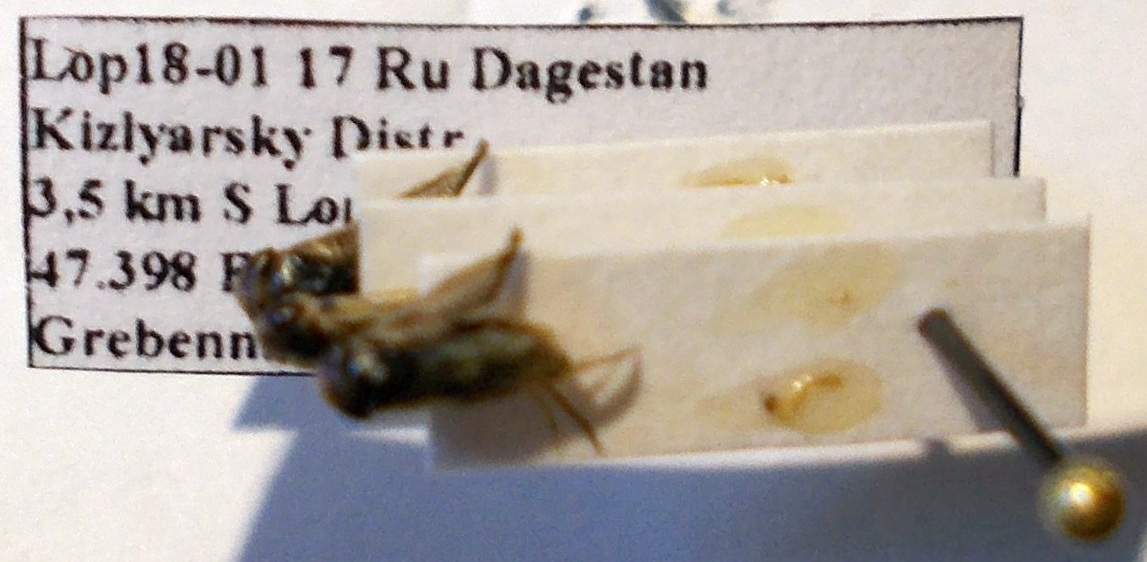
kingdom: Animalia
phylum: Arthropoda
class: Insecta
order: Hemiptera
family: Corixidae
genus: Sigara
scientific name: Sigara lateralis
